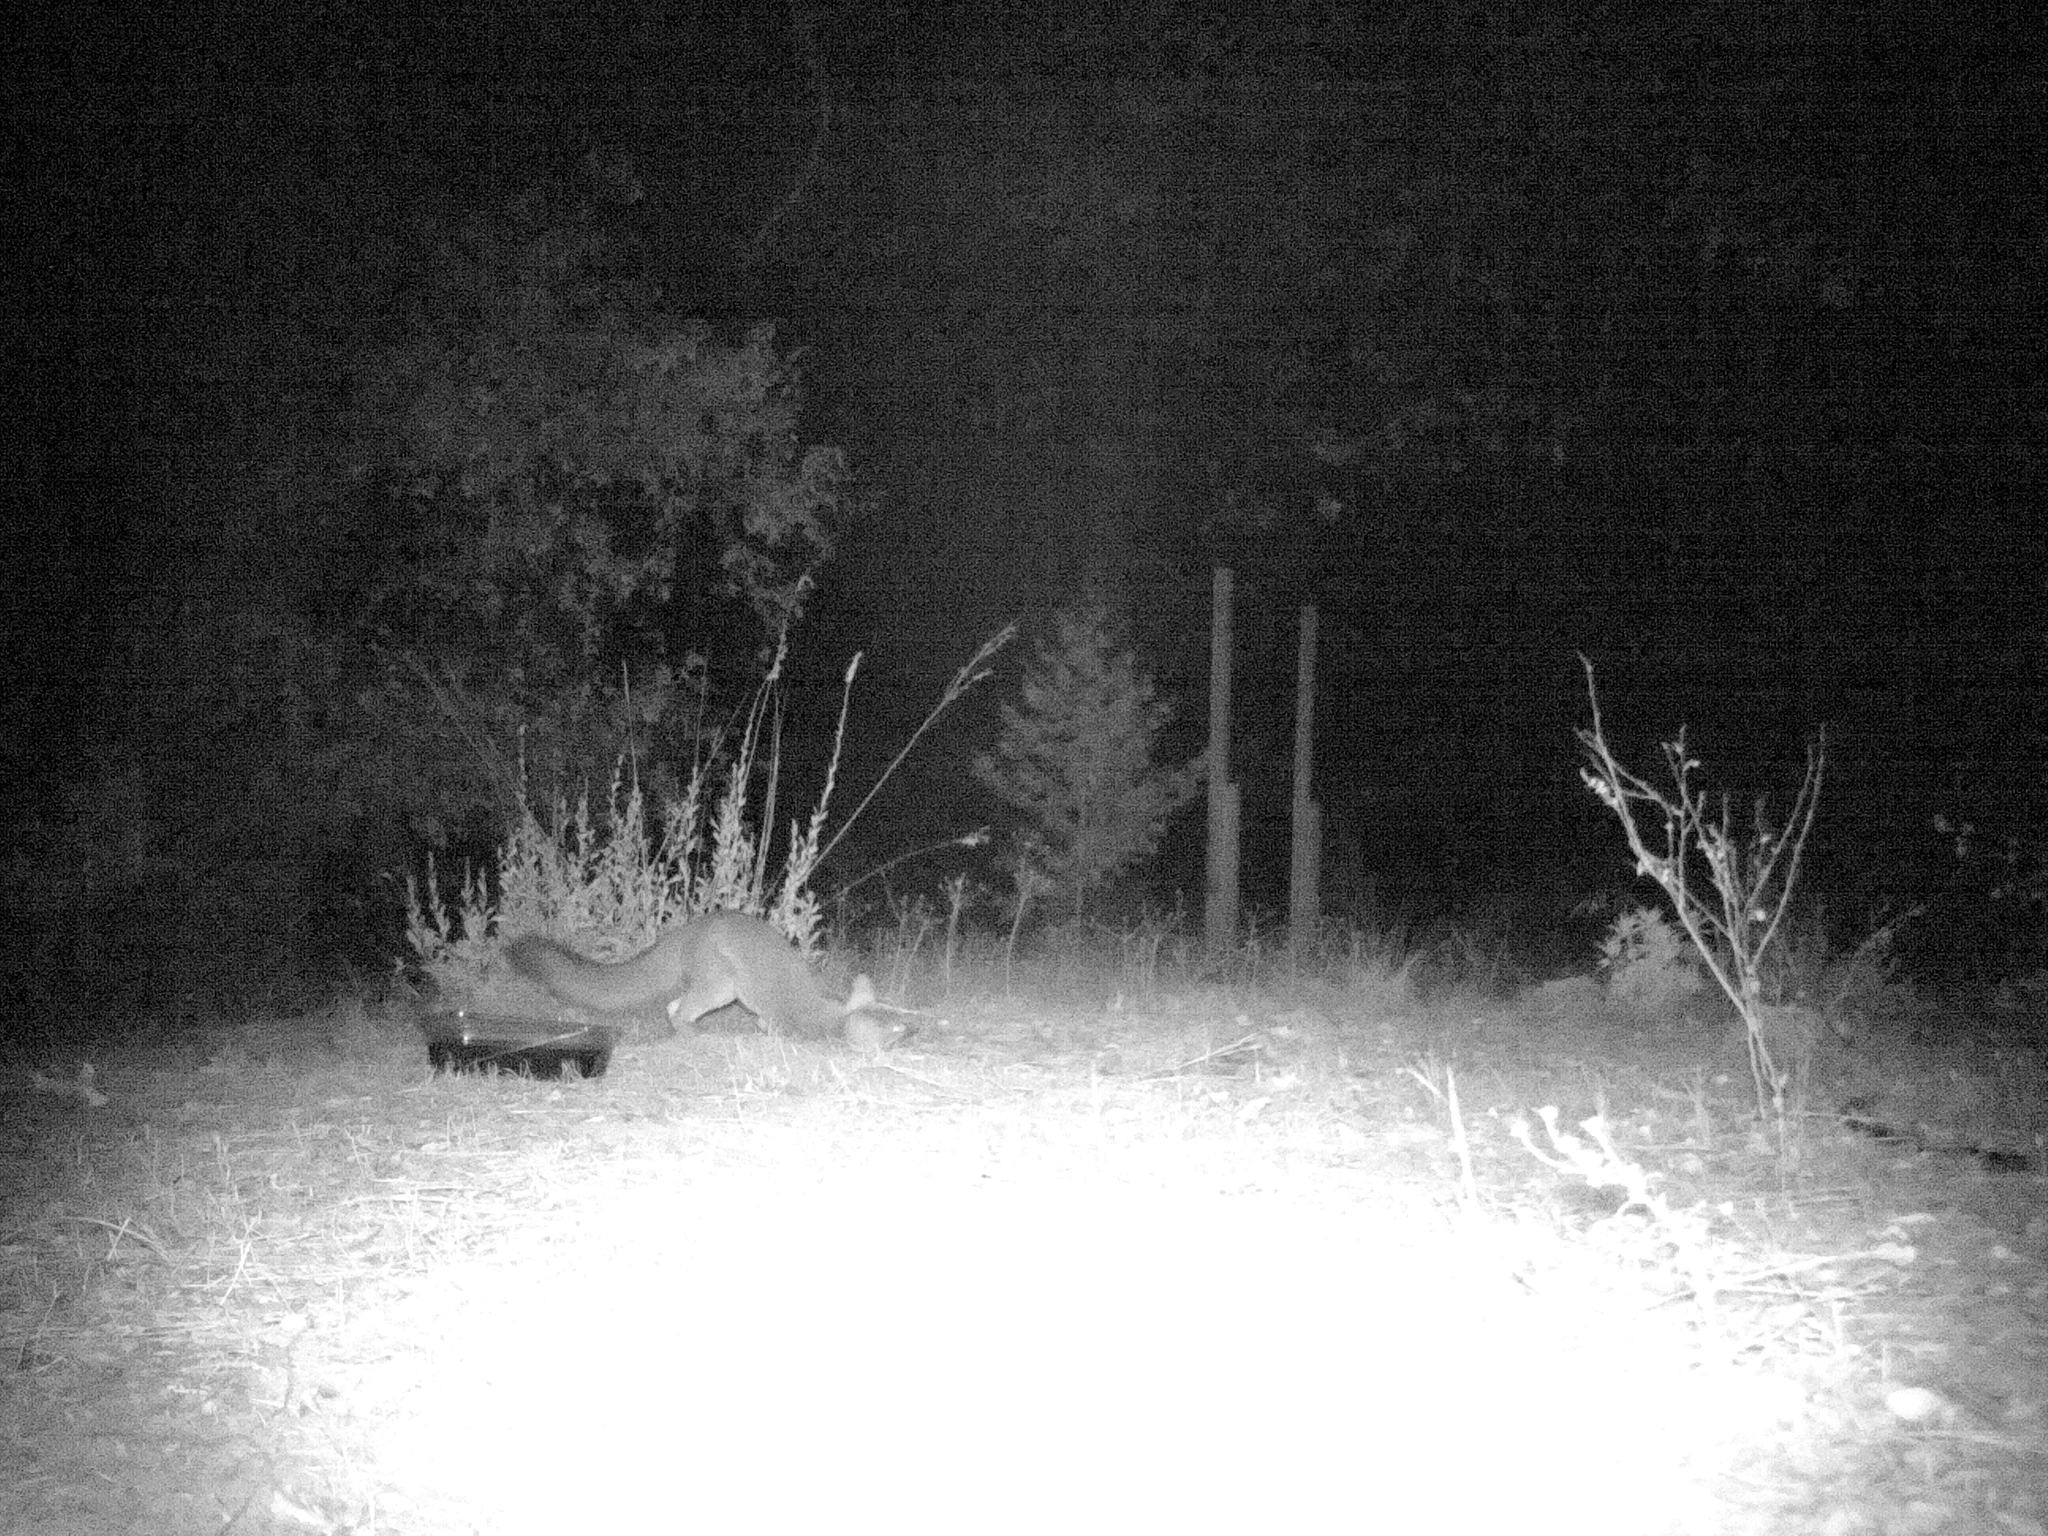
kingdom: Animalia
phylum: Chordata
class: Mammalia
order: Carnivora
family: Canidae
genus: Urocyon
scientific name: Urocyon cinereoargenteus
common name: Gray fox
